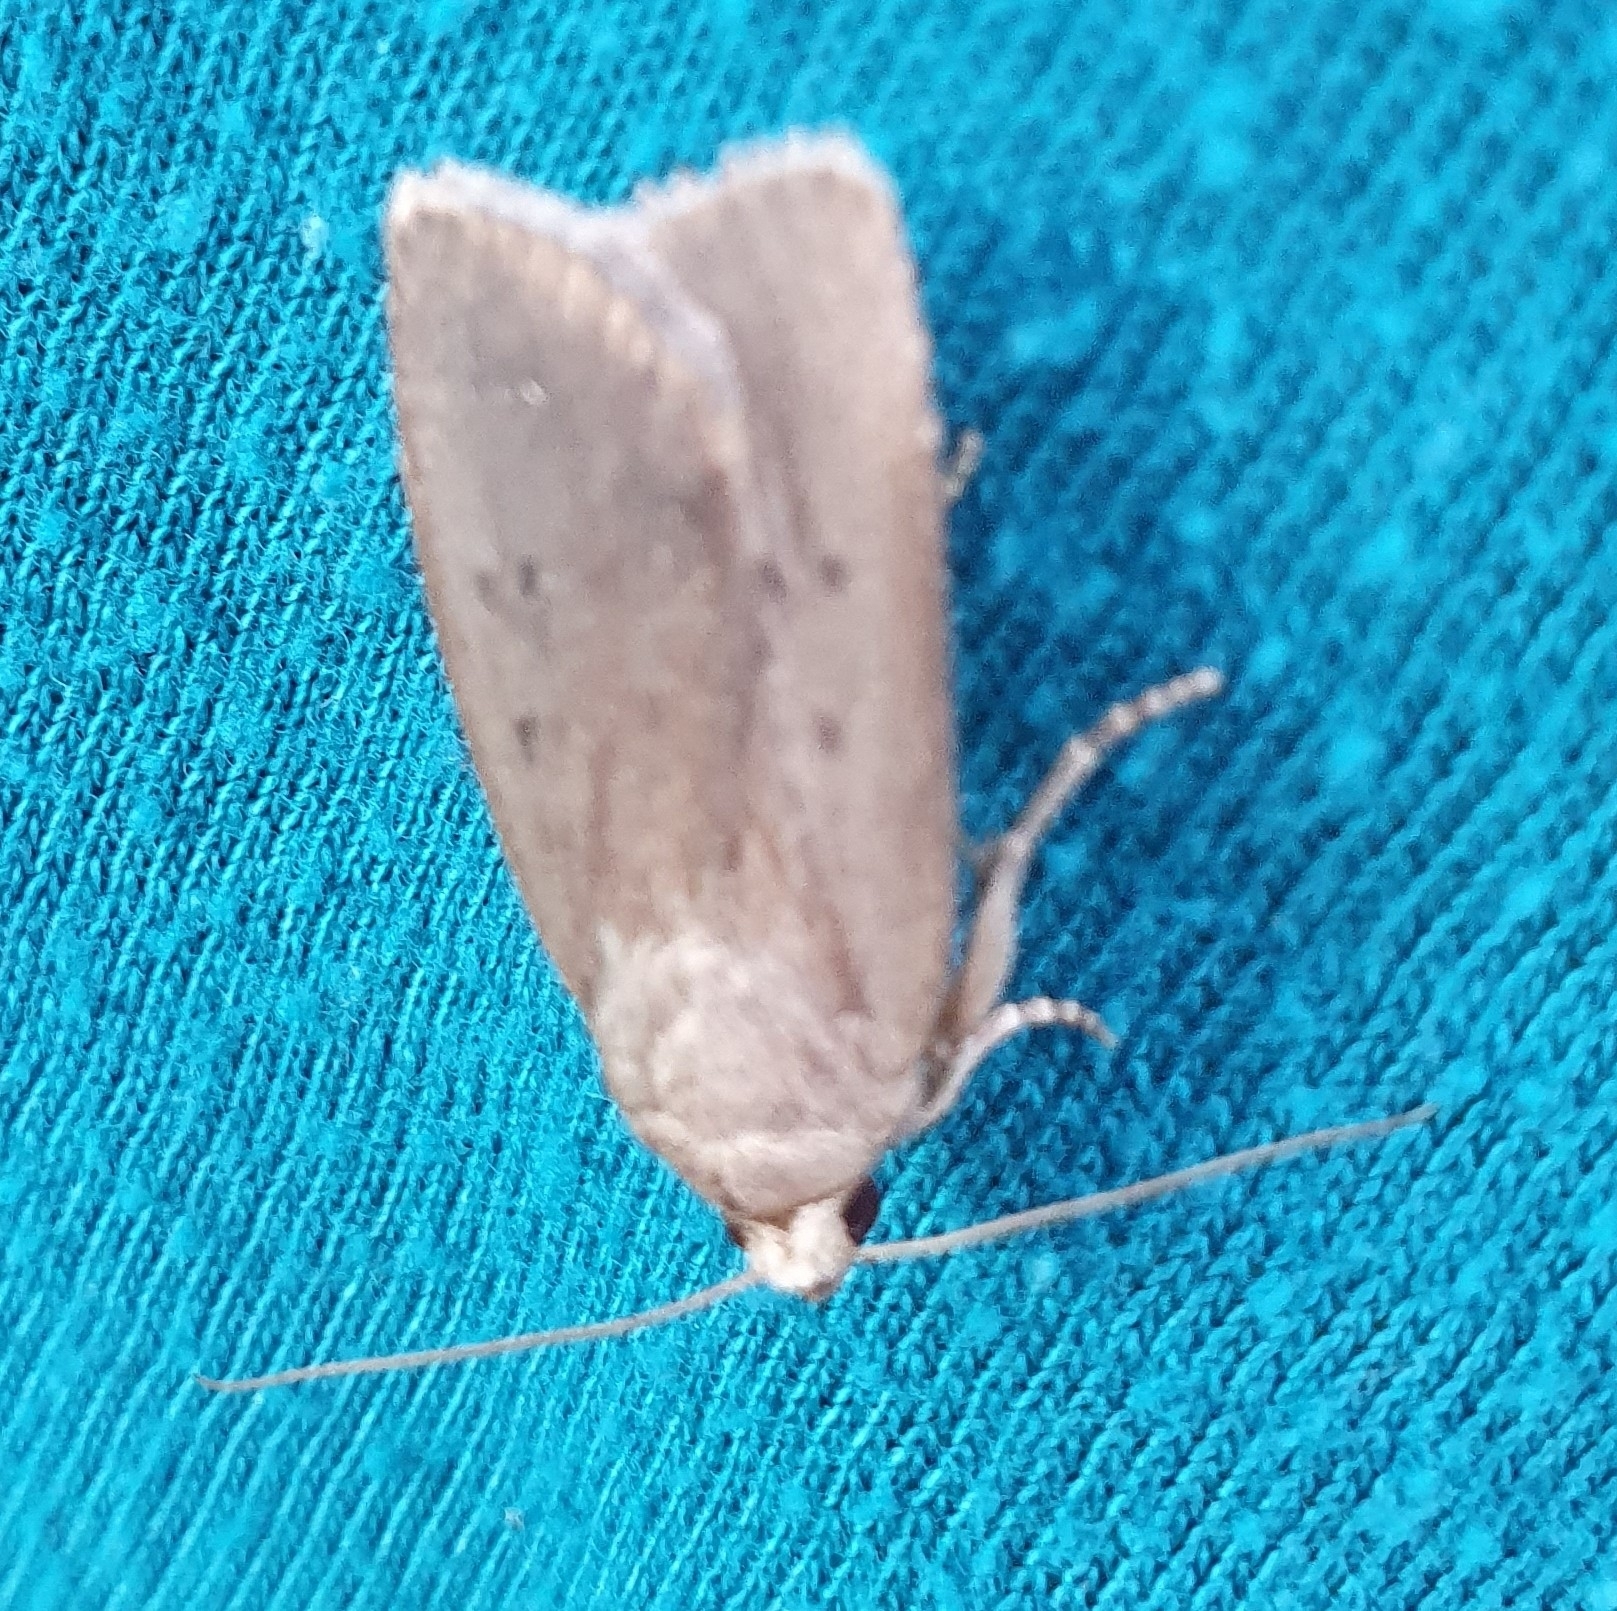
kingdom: Animalia
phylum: Arthropoda
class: Insecta
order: Lepidoptera
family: Noctuidae
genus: Amphipyra
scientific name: Amphipyra tragopoginis
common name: Mouse moth
